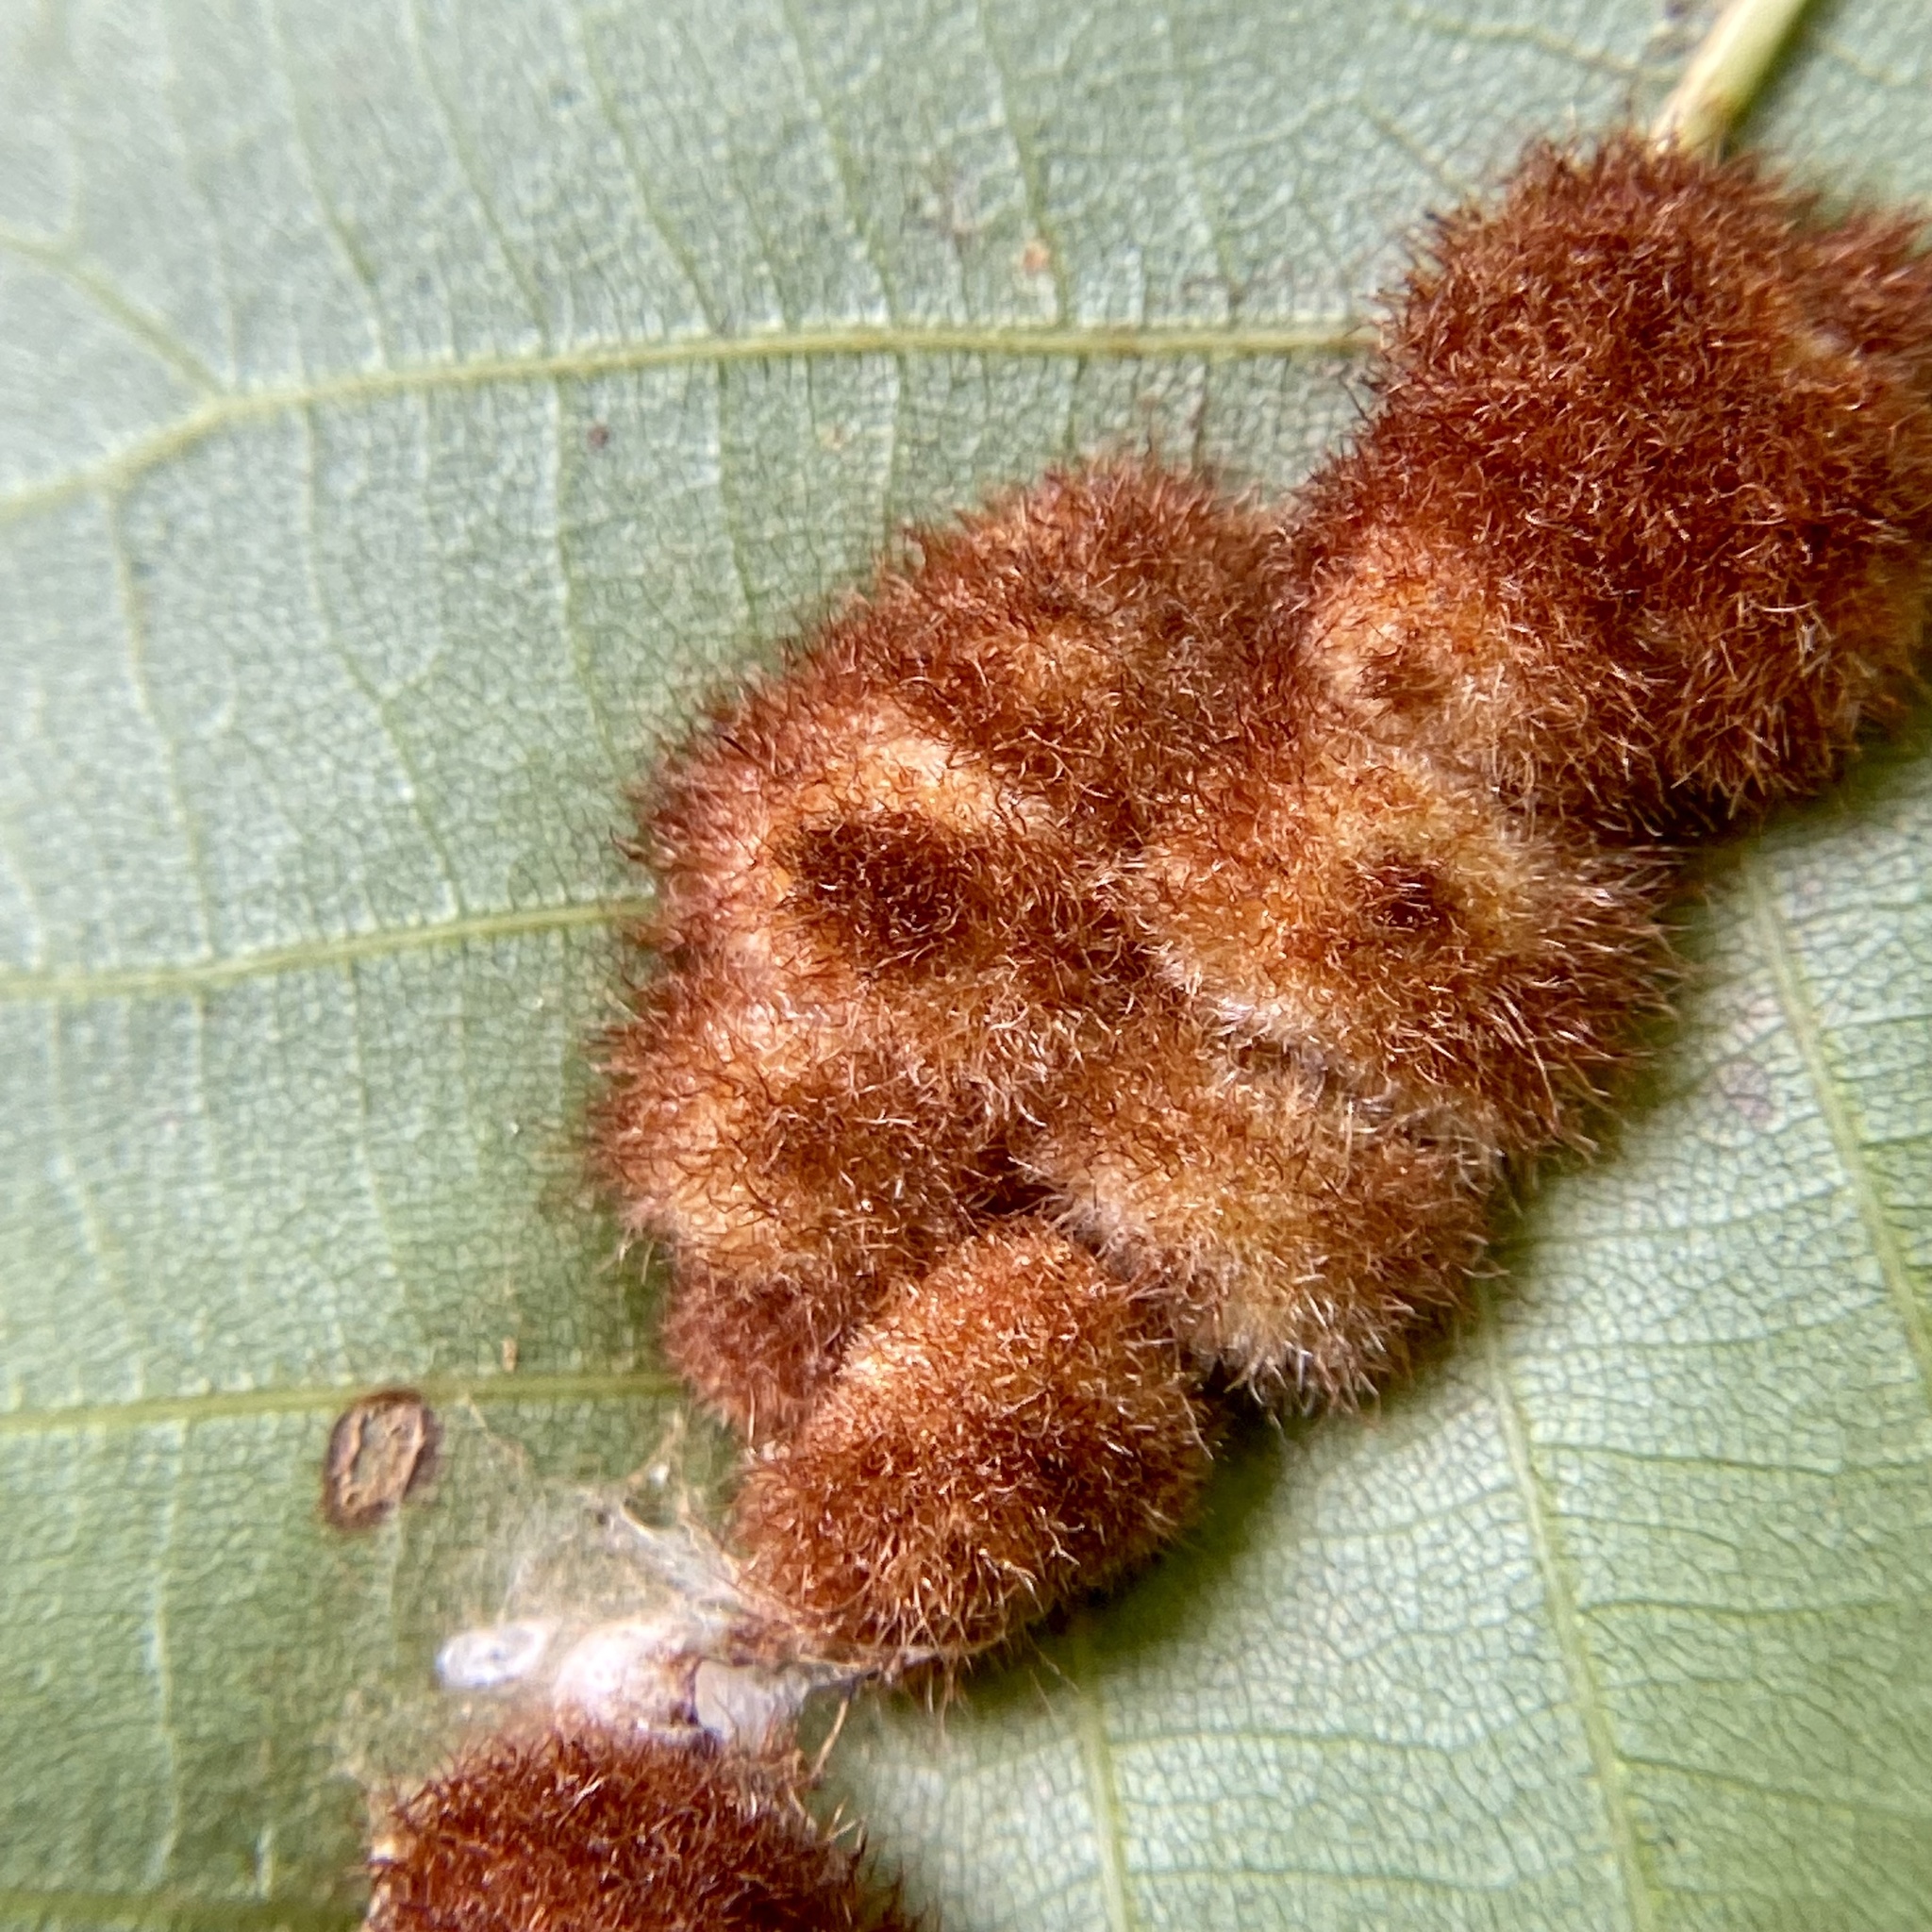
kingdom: Animalia
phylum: Arthropoda
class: Insecta
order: Diptera
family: Cecidomyiidae
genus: Caryomyia
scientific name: Caryomyia aggregata
